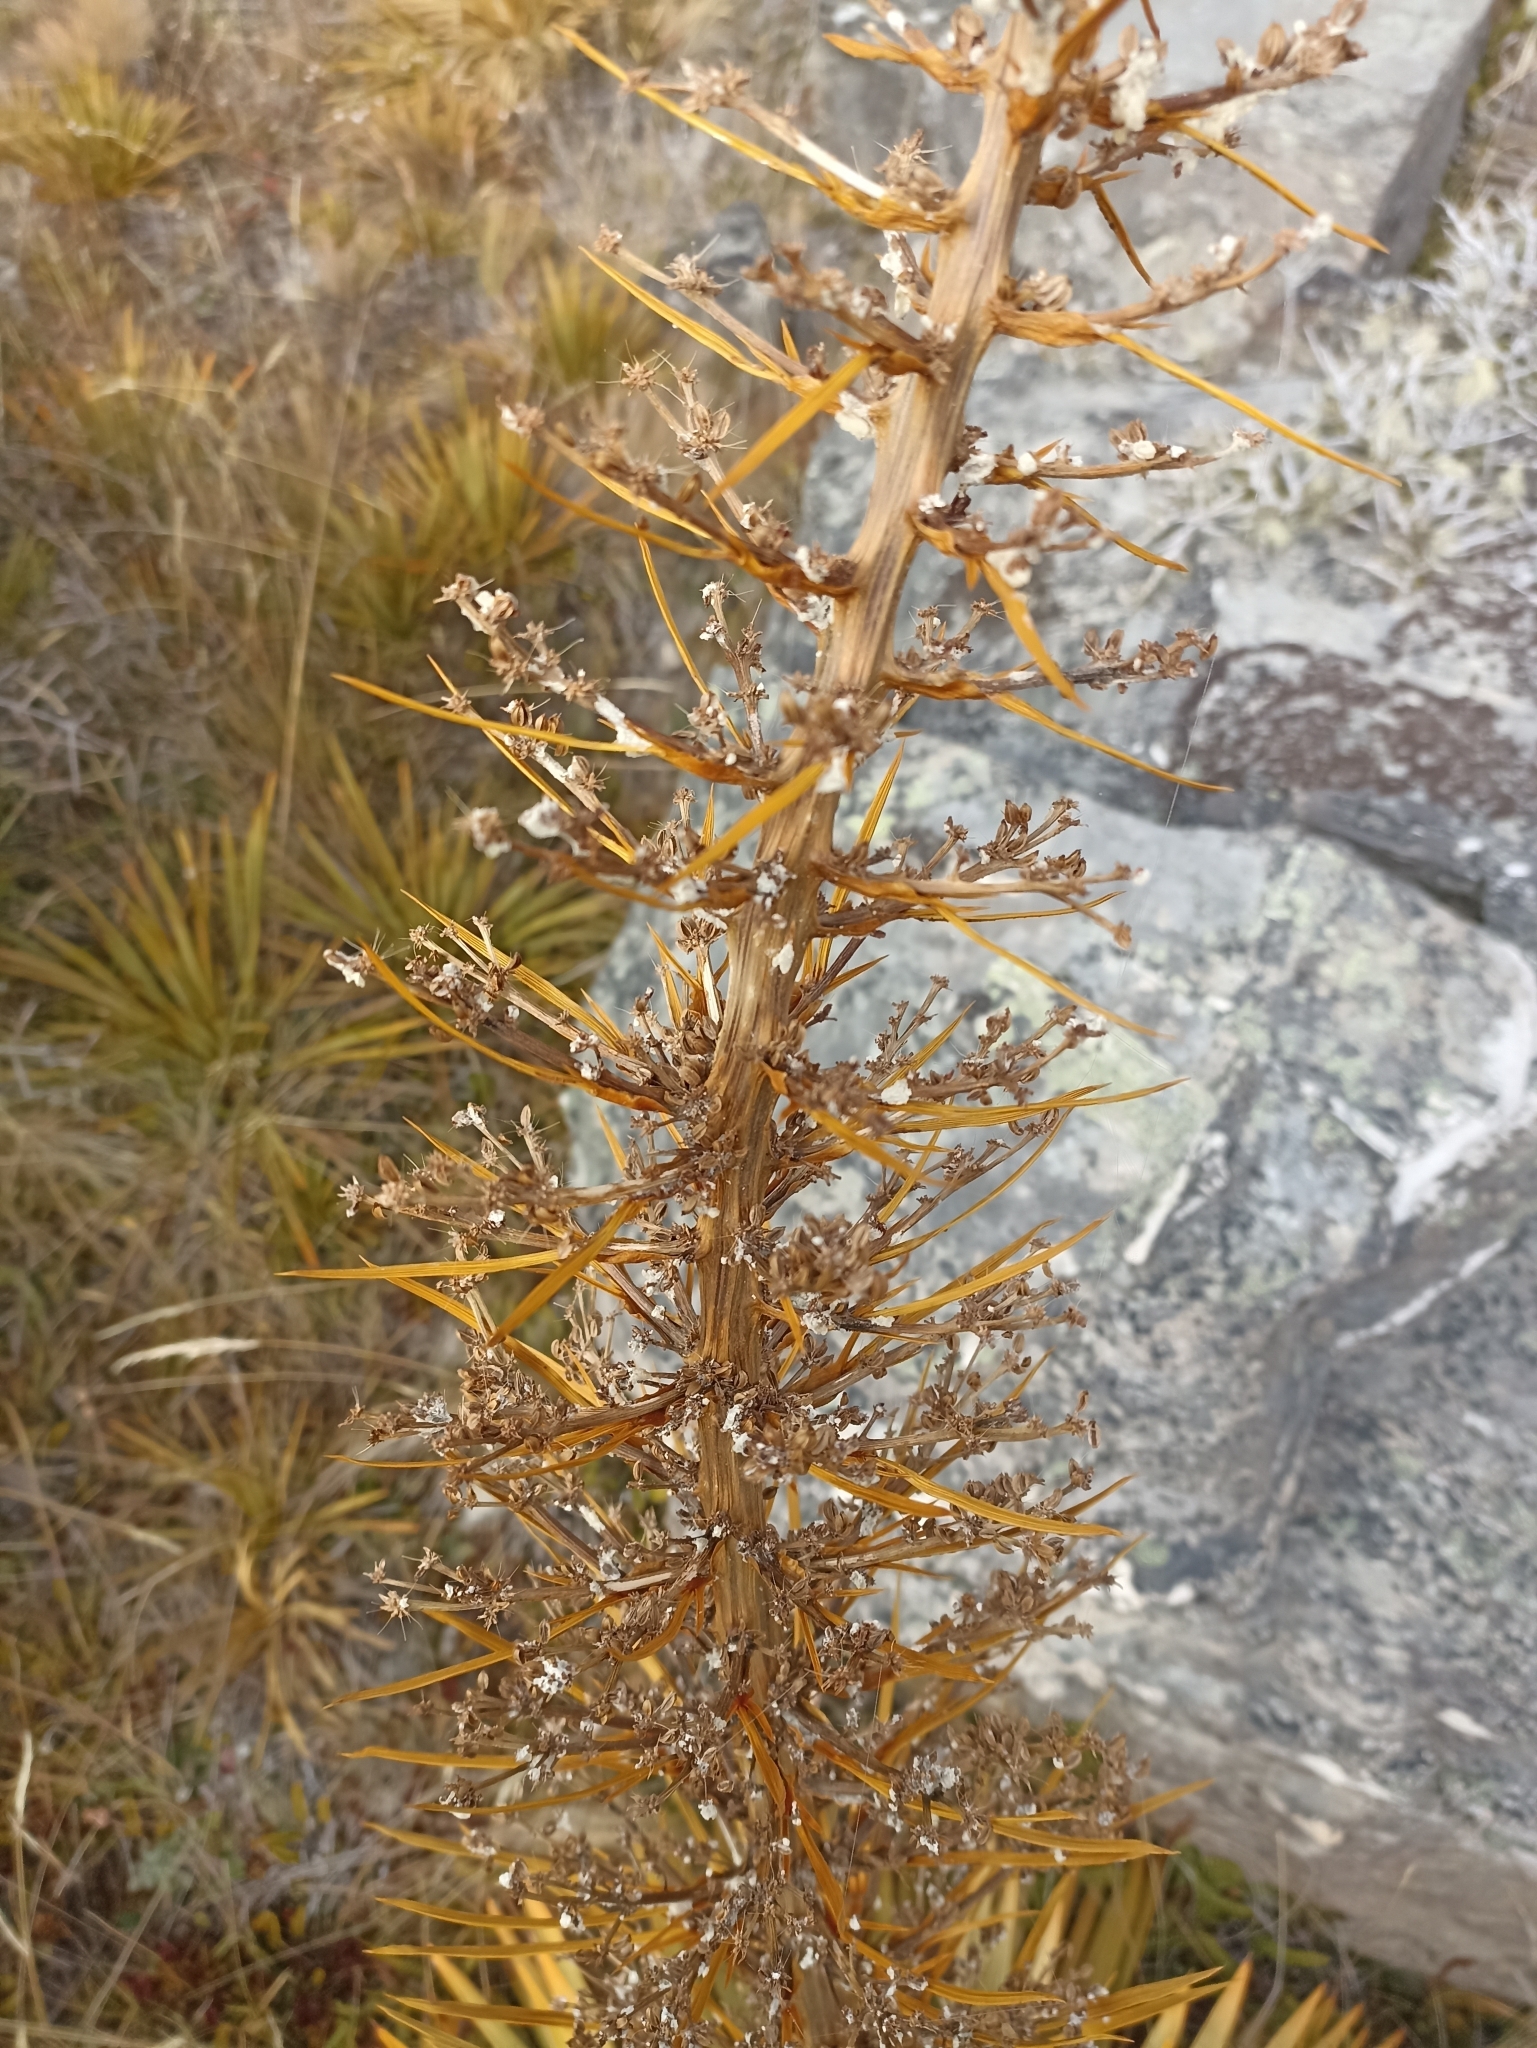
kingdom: Plantae
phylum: Tracheophyta
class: Magnoliopsida
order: Apiales
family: Apiaceae
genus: Aciphylla
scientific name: Aciphylla aurea
